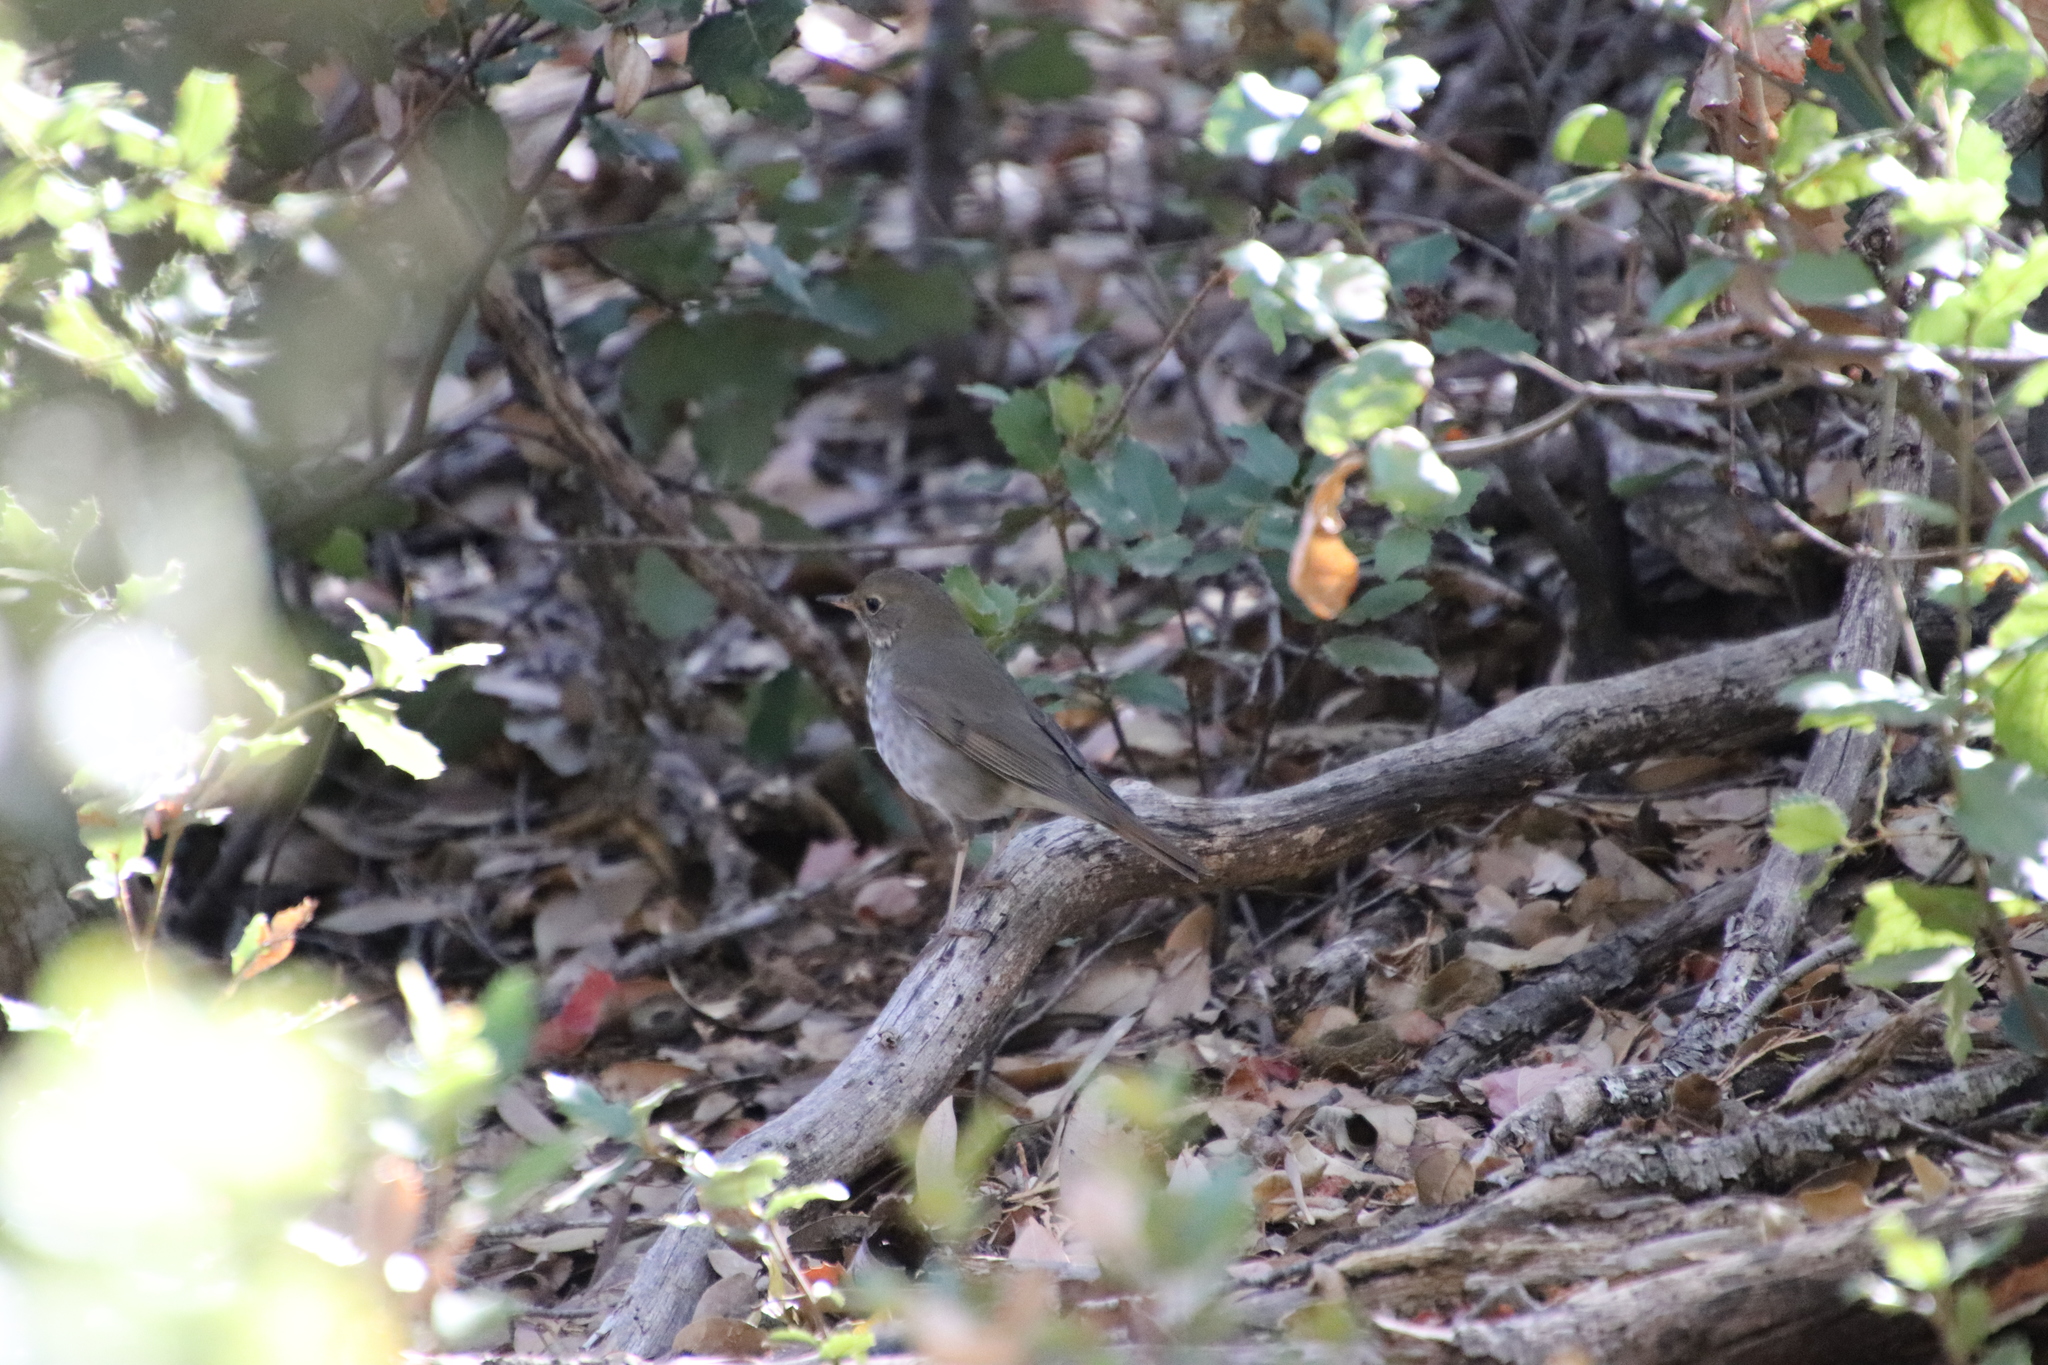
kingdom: Animalia
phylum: Chordata
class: Aves
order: Passeriformes
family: Turdidae
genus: Catharus
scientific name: Catharus guttatus
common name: Hermit thrush
